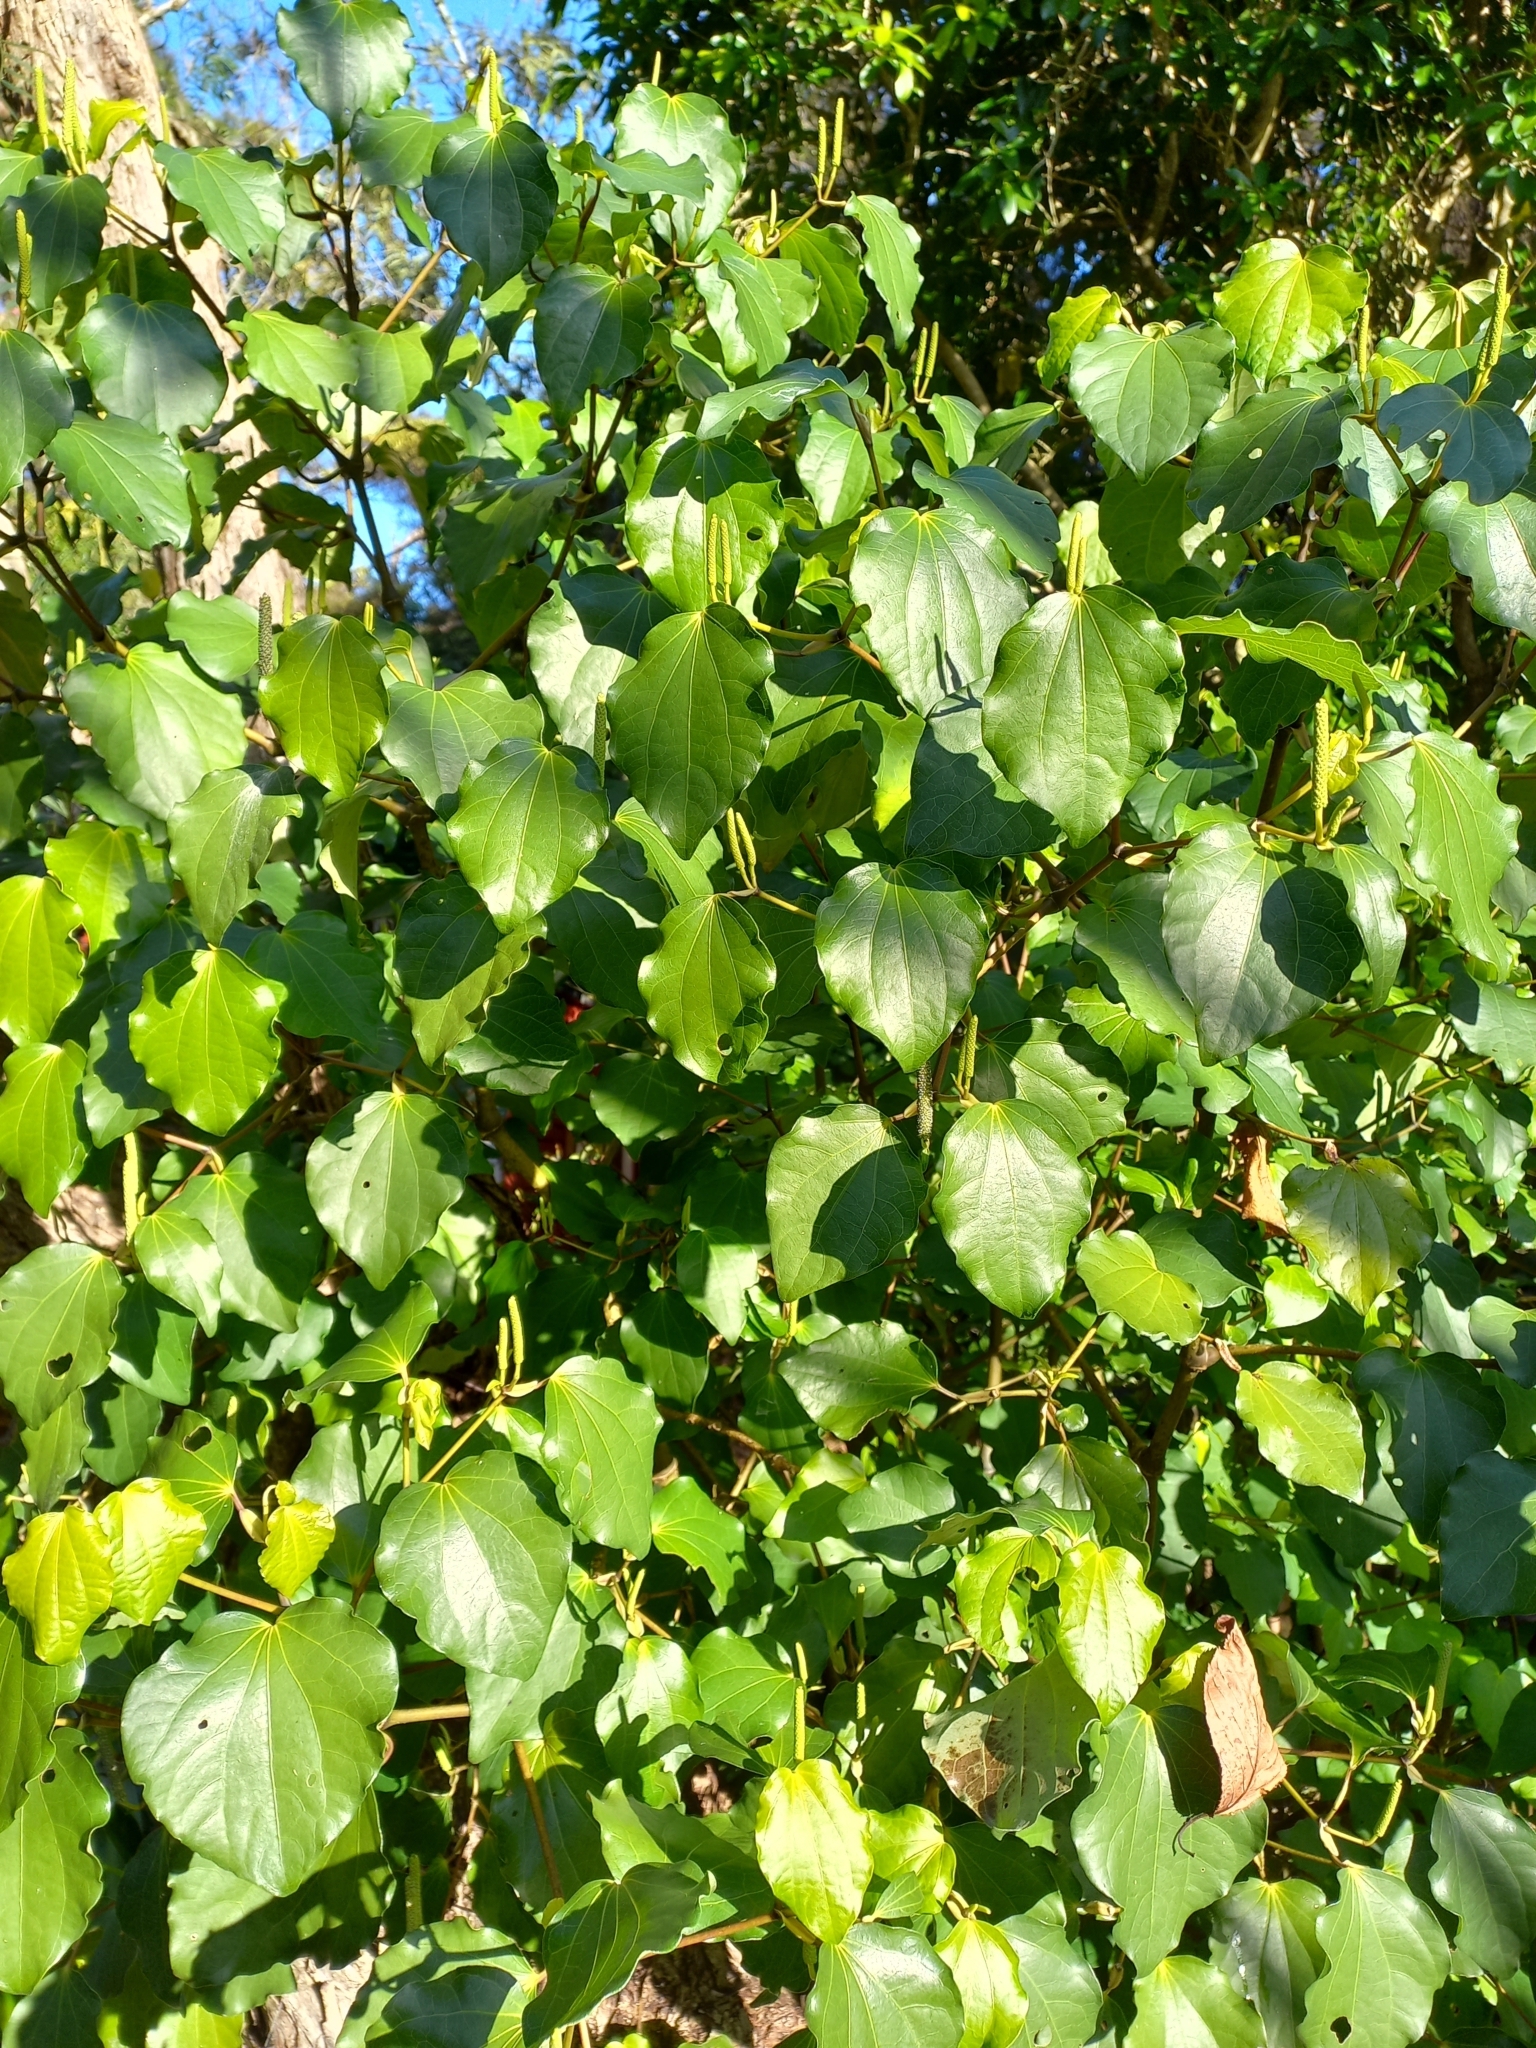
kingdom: Plantae
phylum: Tracheophyta
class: Magnoliopsida
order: Piperales
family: Piperaceae
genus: Macropiper
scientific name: Macropiper excelsum
